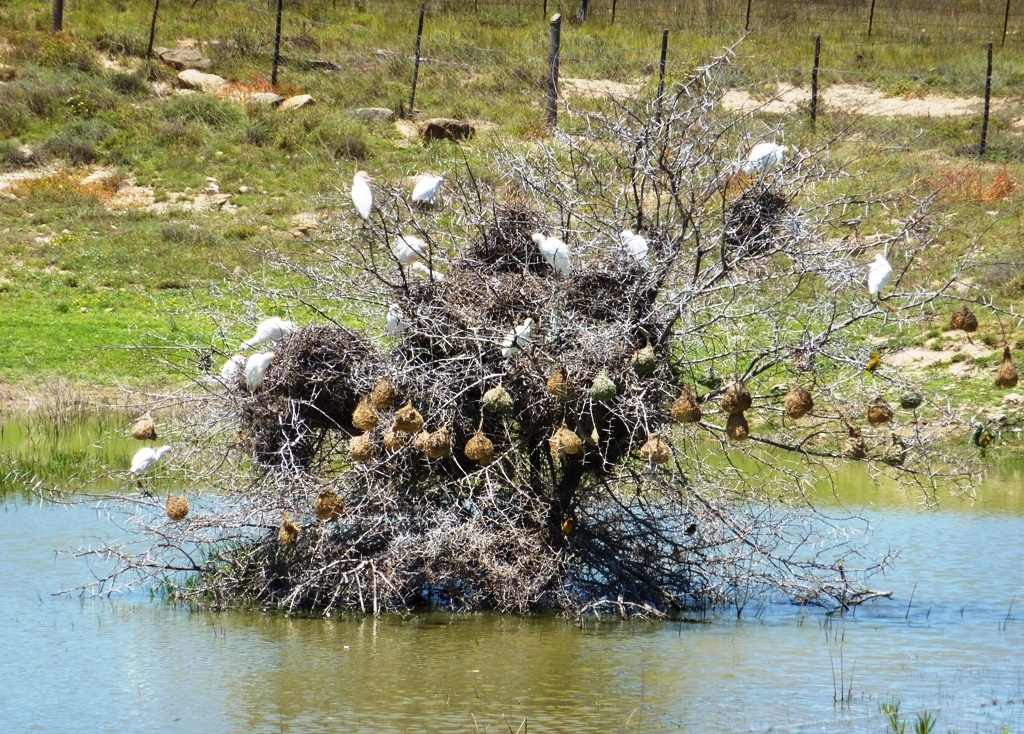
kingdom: Animalia
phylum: Chordata
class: Aves
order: Pelecaniformes
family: Ardeidae
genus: Bubulcus
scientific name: Bubulcus ibis
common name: Cattle egret
